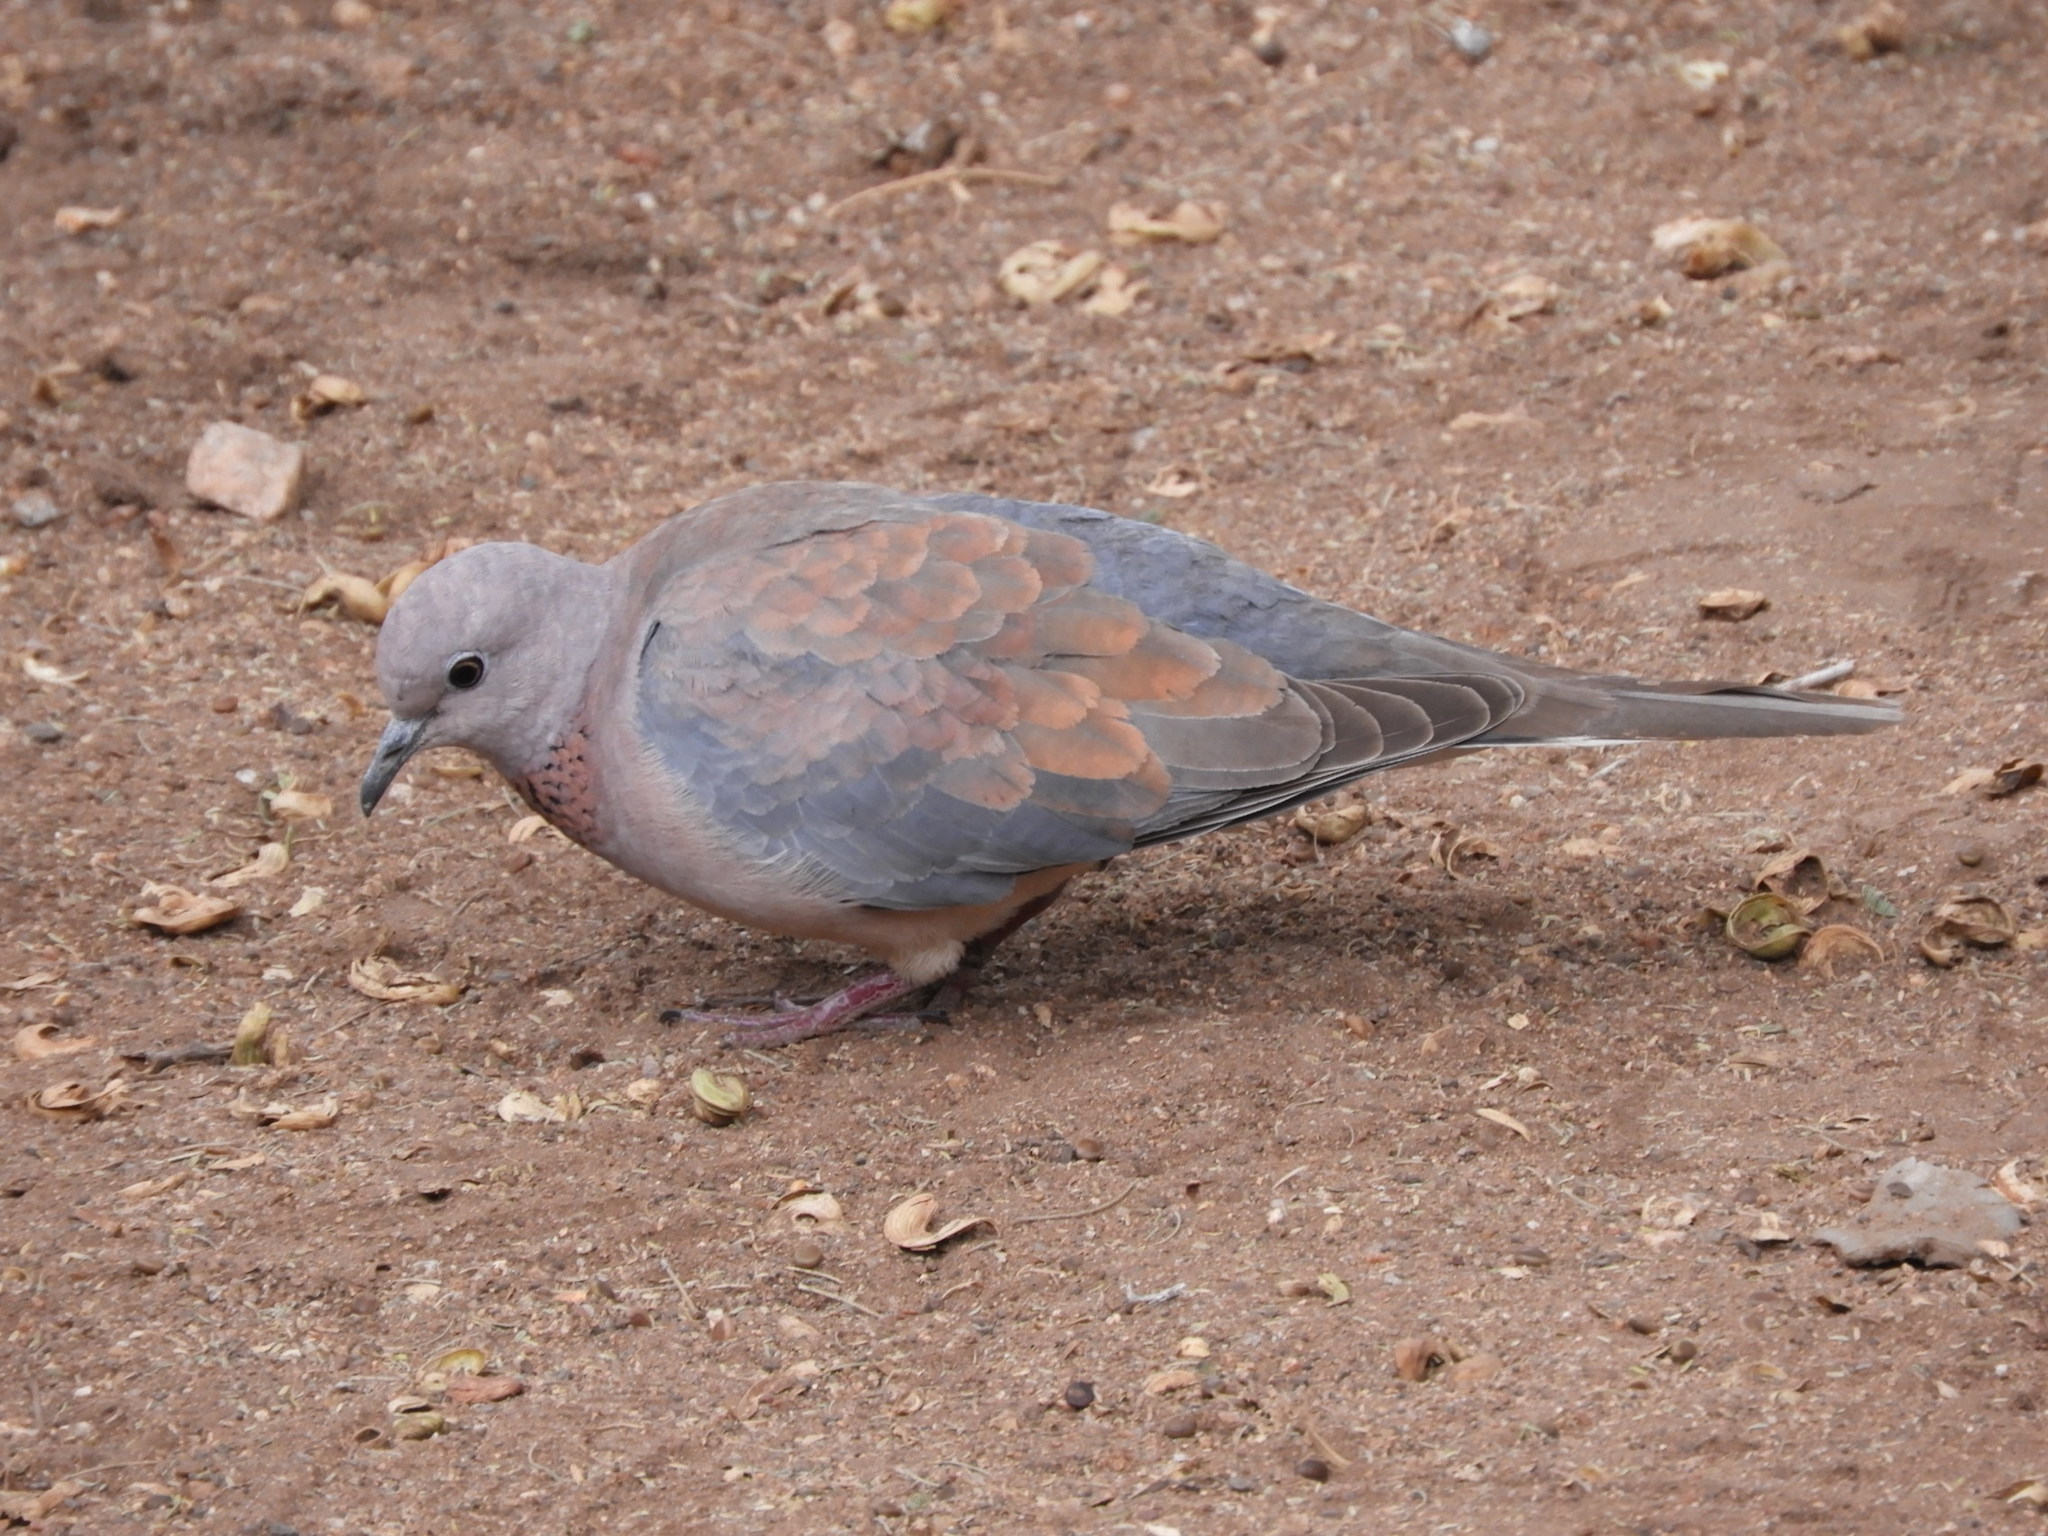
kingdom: Animalia
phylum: Chordata
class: Aves
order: Columbiformes
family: Columbidae
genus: Spilopelia
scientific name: Spilopelia senegalensis
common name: Laughing dove
